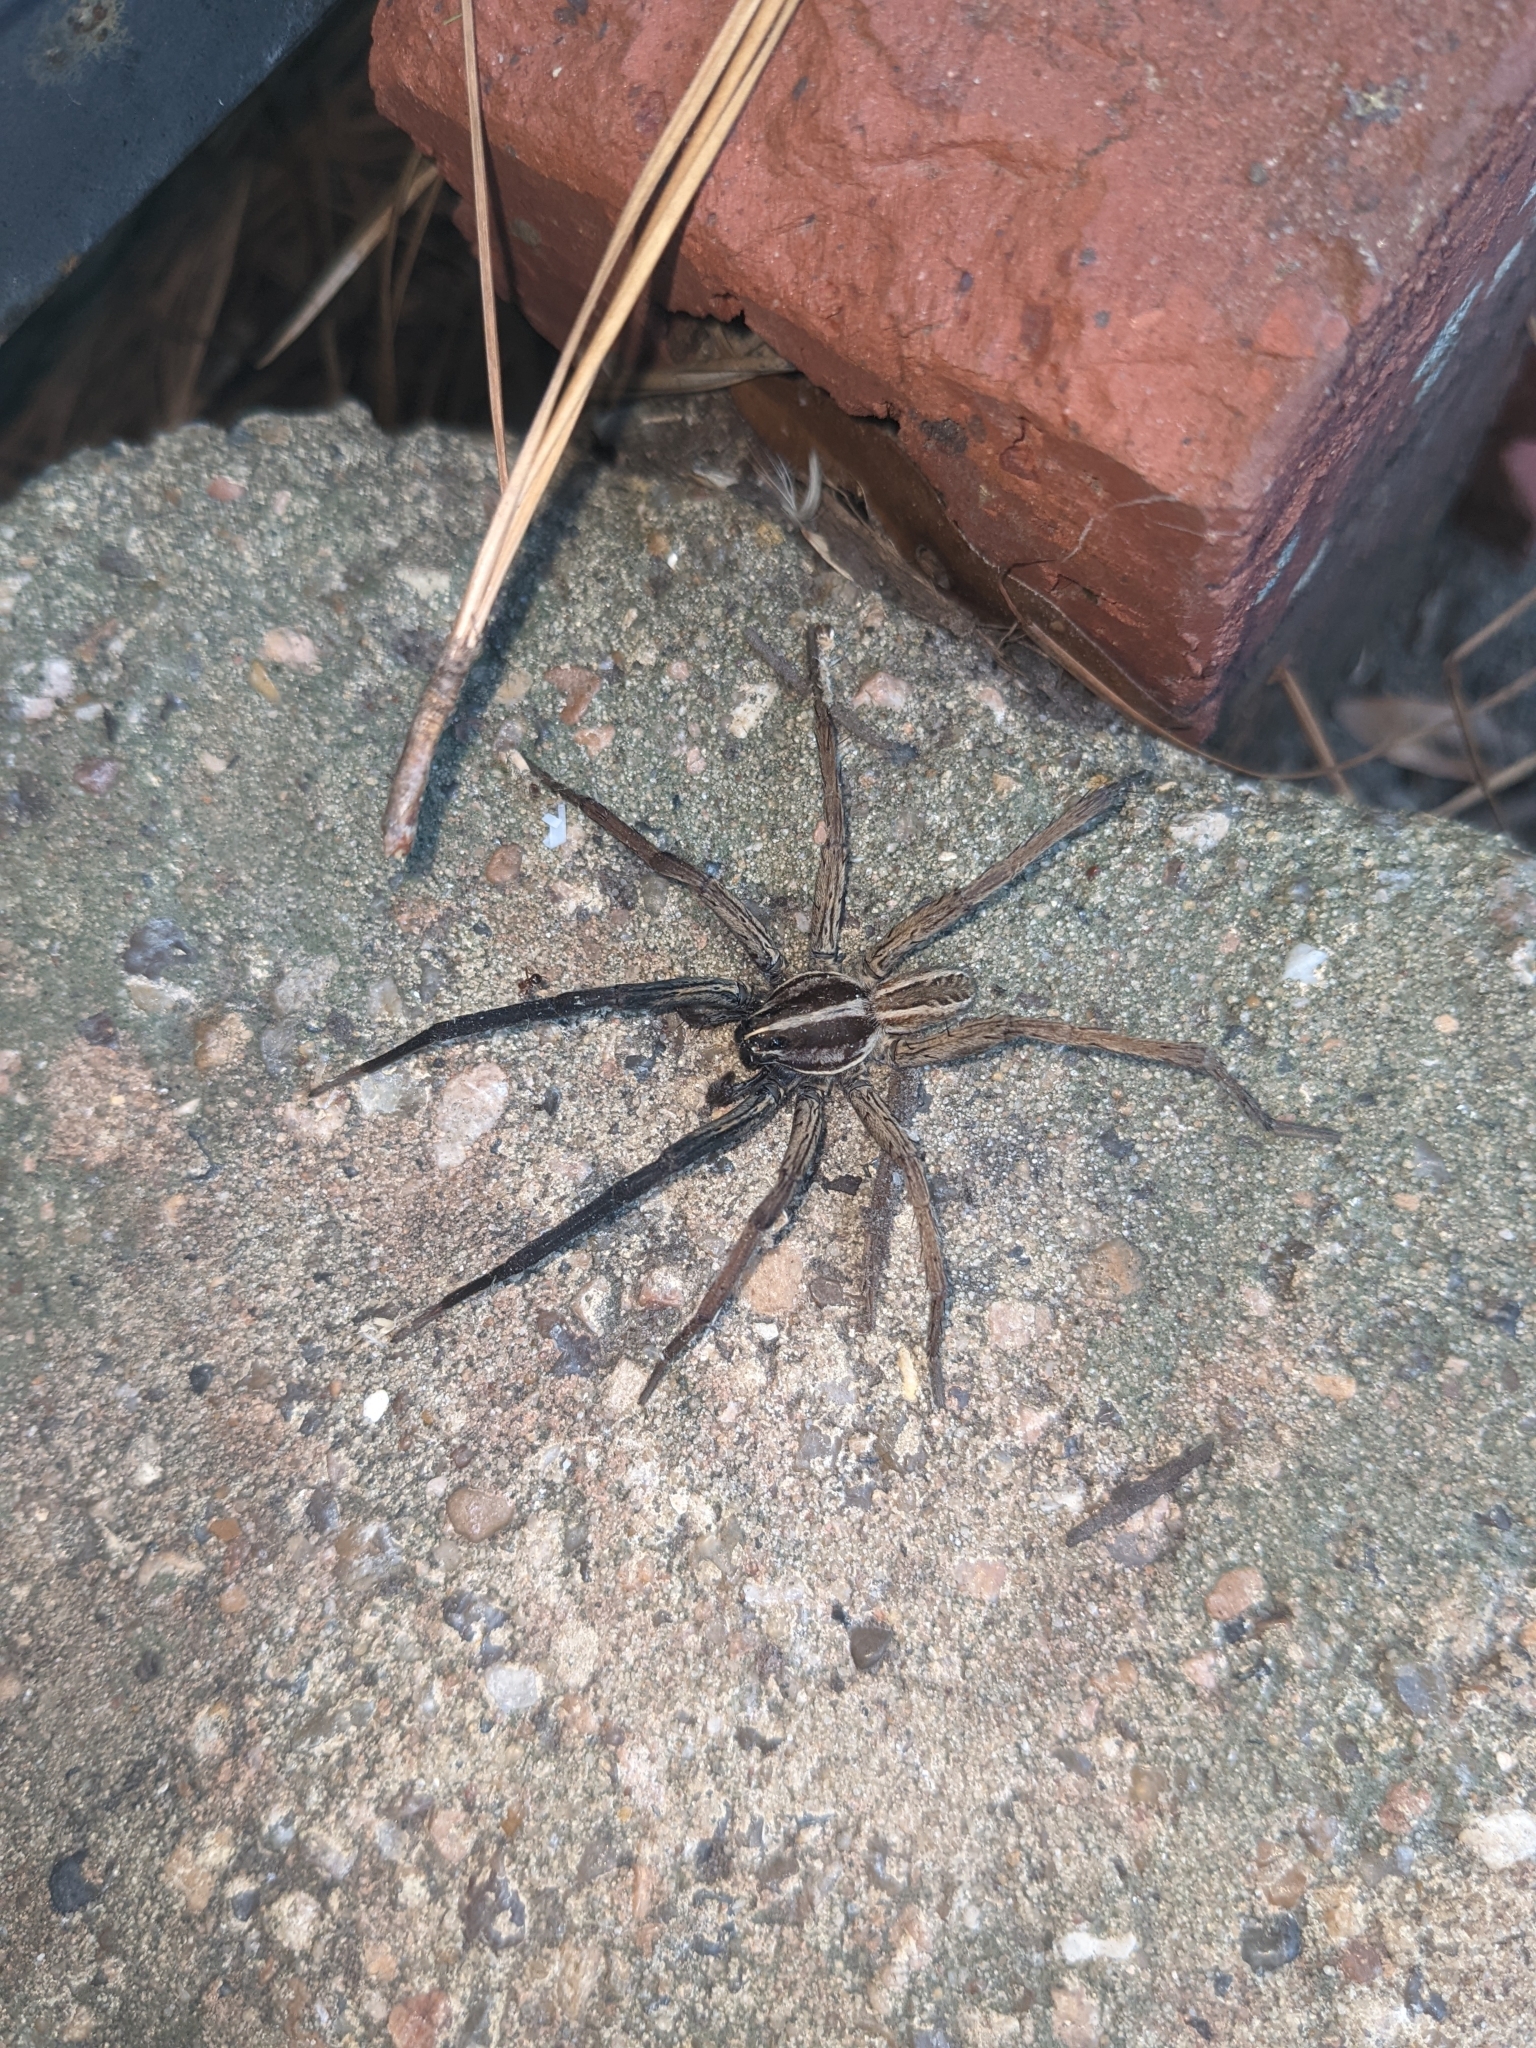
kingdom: Animalia
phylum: Arthropoda
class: Arachnida
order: Araneae
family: Lycosidae
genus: Rabidosa
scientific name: Rabidosa rabida
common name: Rabid wolf spider
